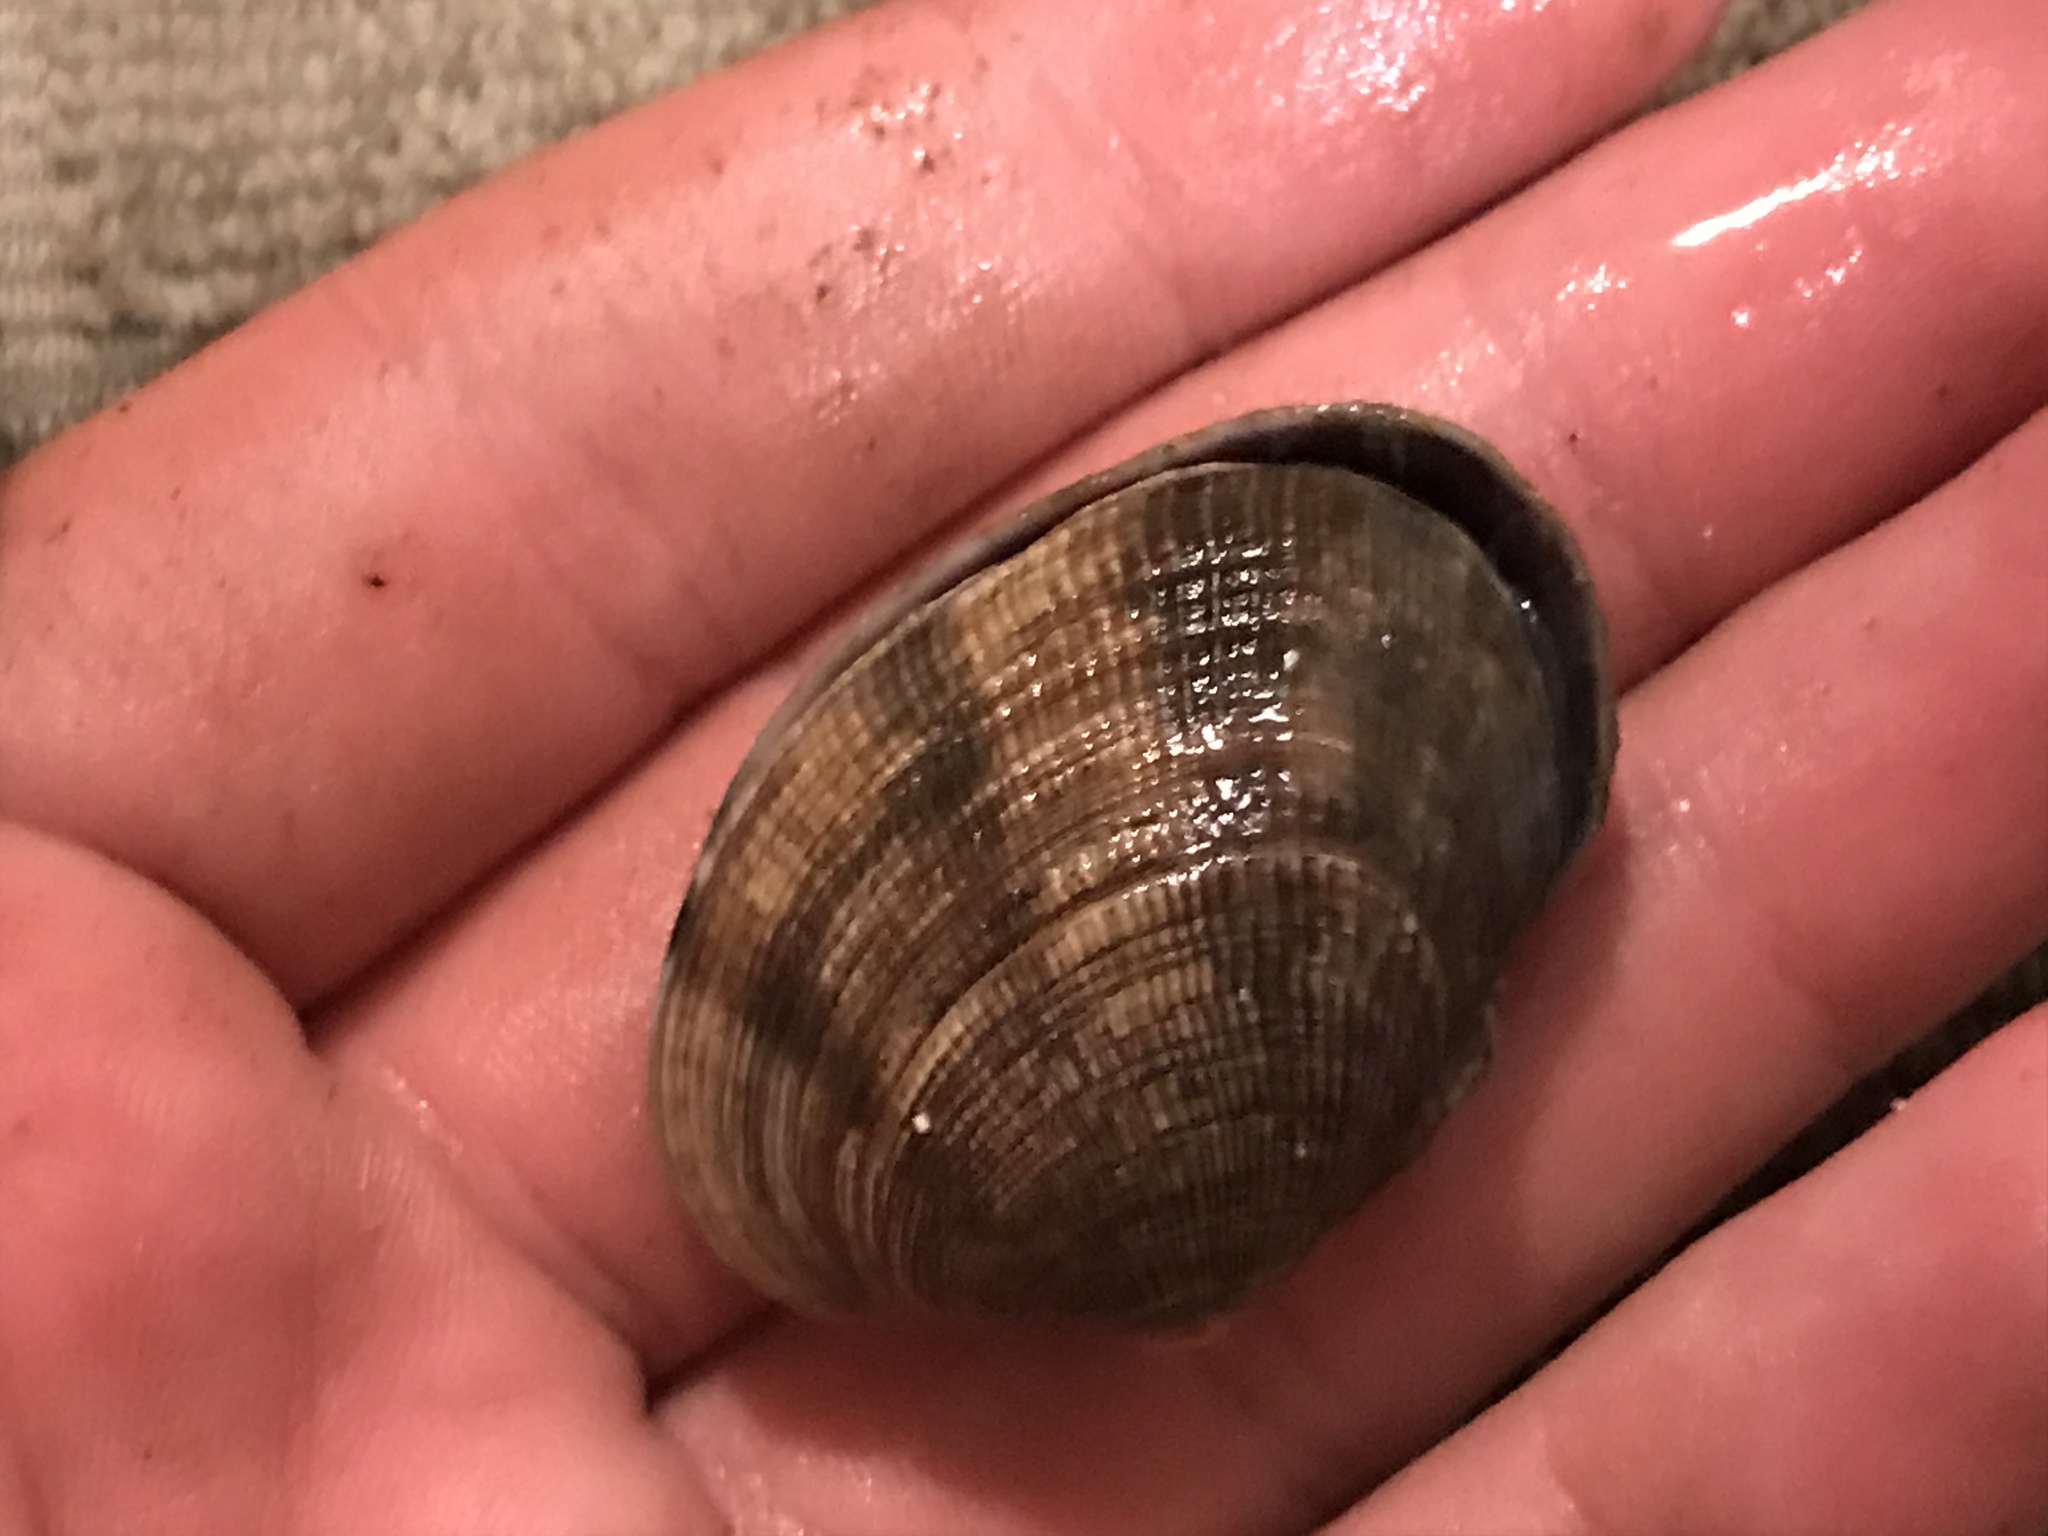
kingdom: Animalia
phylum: Mollusca
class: Bivalvia
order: Venerida
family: Veneridae
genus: Ruditapes
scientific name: Ruditapes philippinarum
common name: Manila clam
